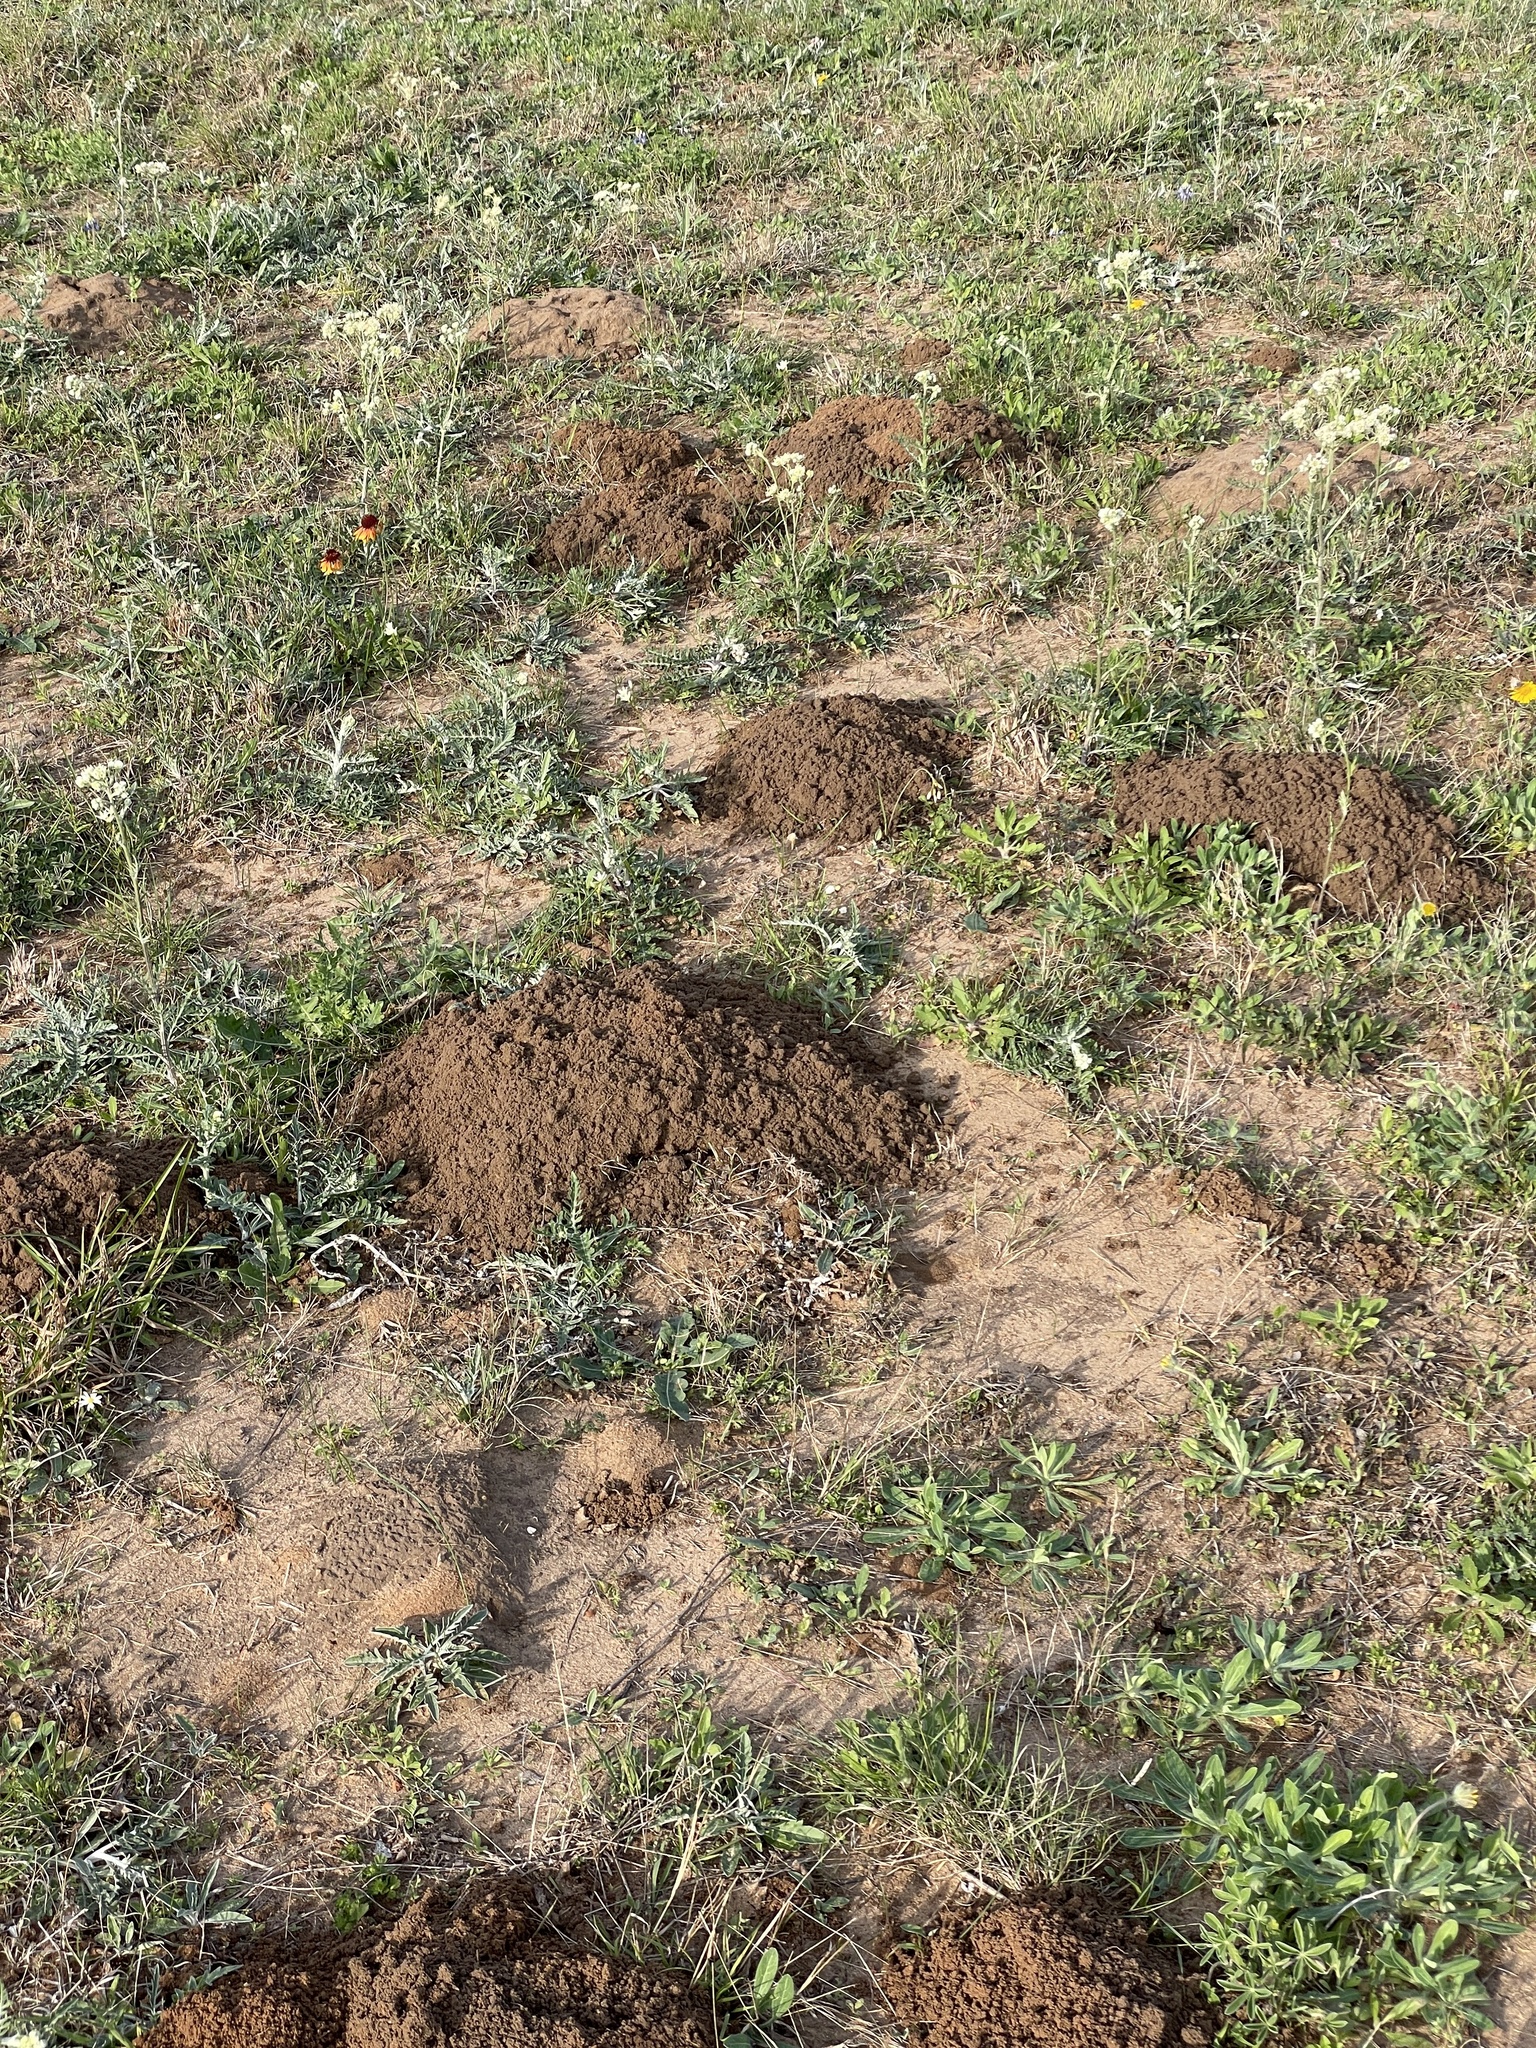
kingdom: Animalia
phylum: Chordata
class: Mammalia
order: Rodentia
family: Geomyidae
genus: Geomys
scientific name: Geomys attwateri
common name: Attwater's pocket gopher
